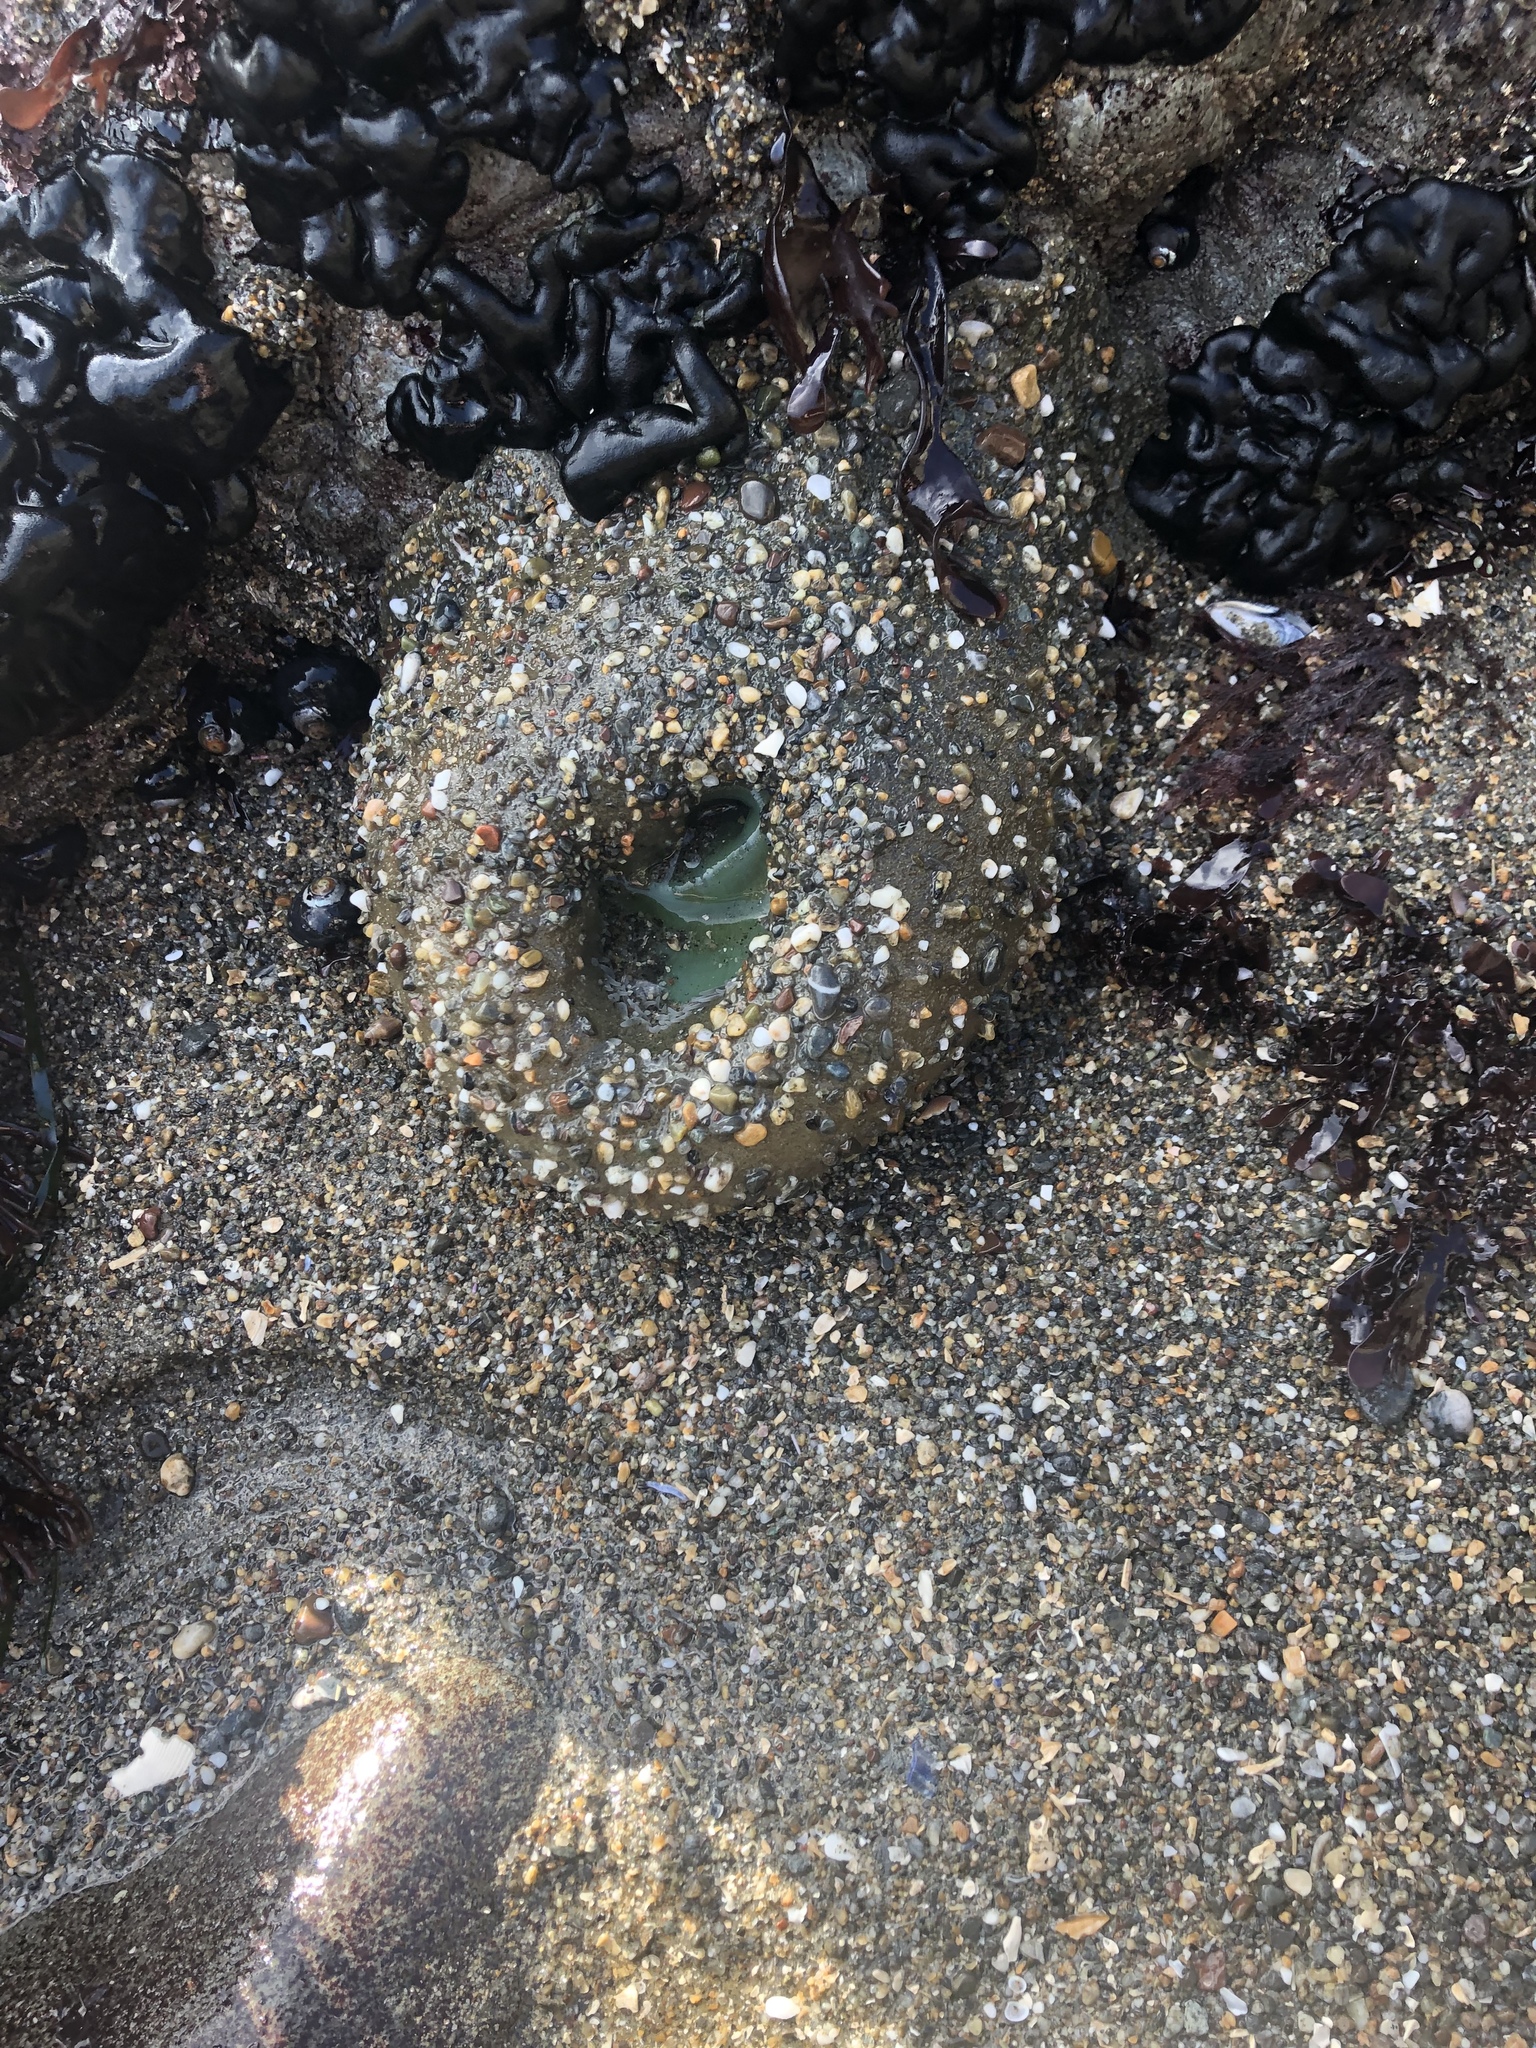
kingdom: Animalia
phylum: Cnidaria
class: Anthozoa
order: Actiniaria
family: Actiniidae
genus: Anthopleura
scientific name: Anthopleura xanthogrammica
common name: Giant green anemone
